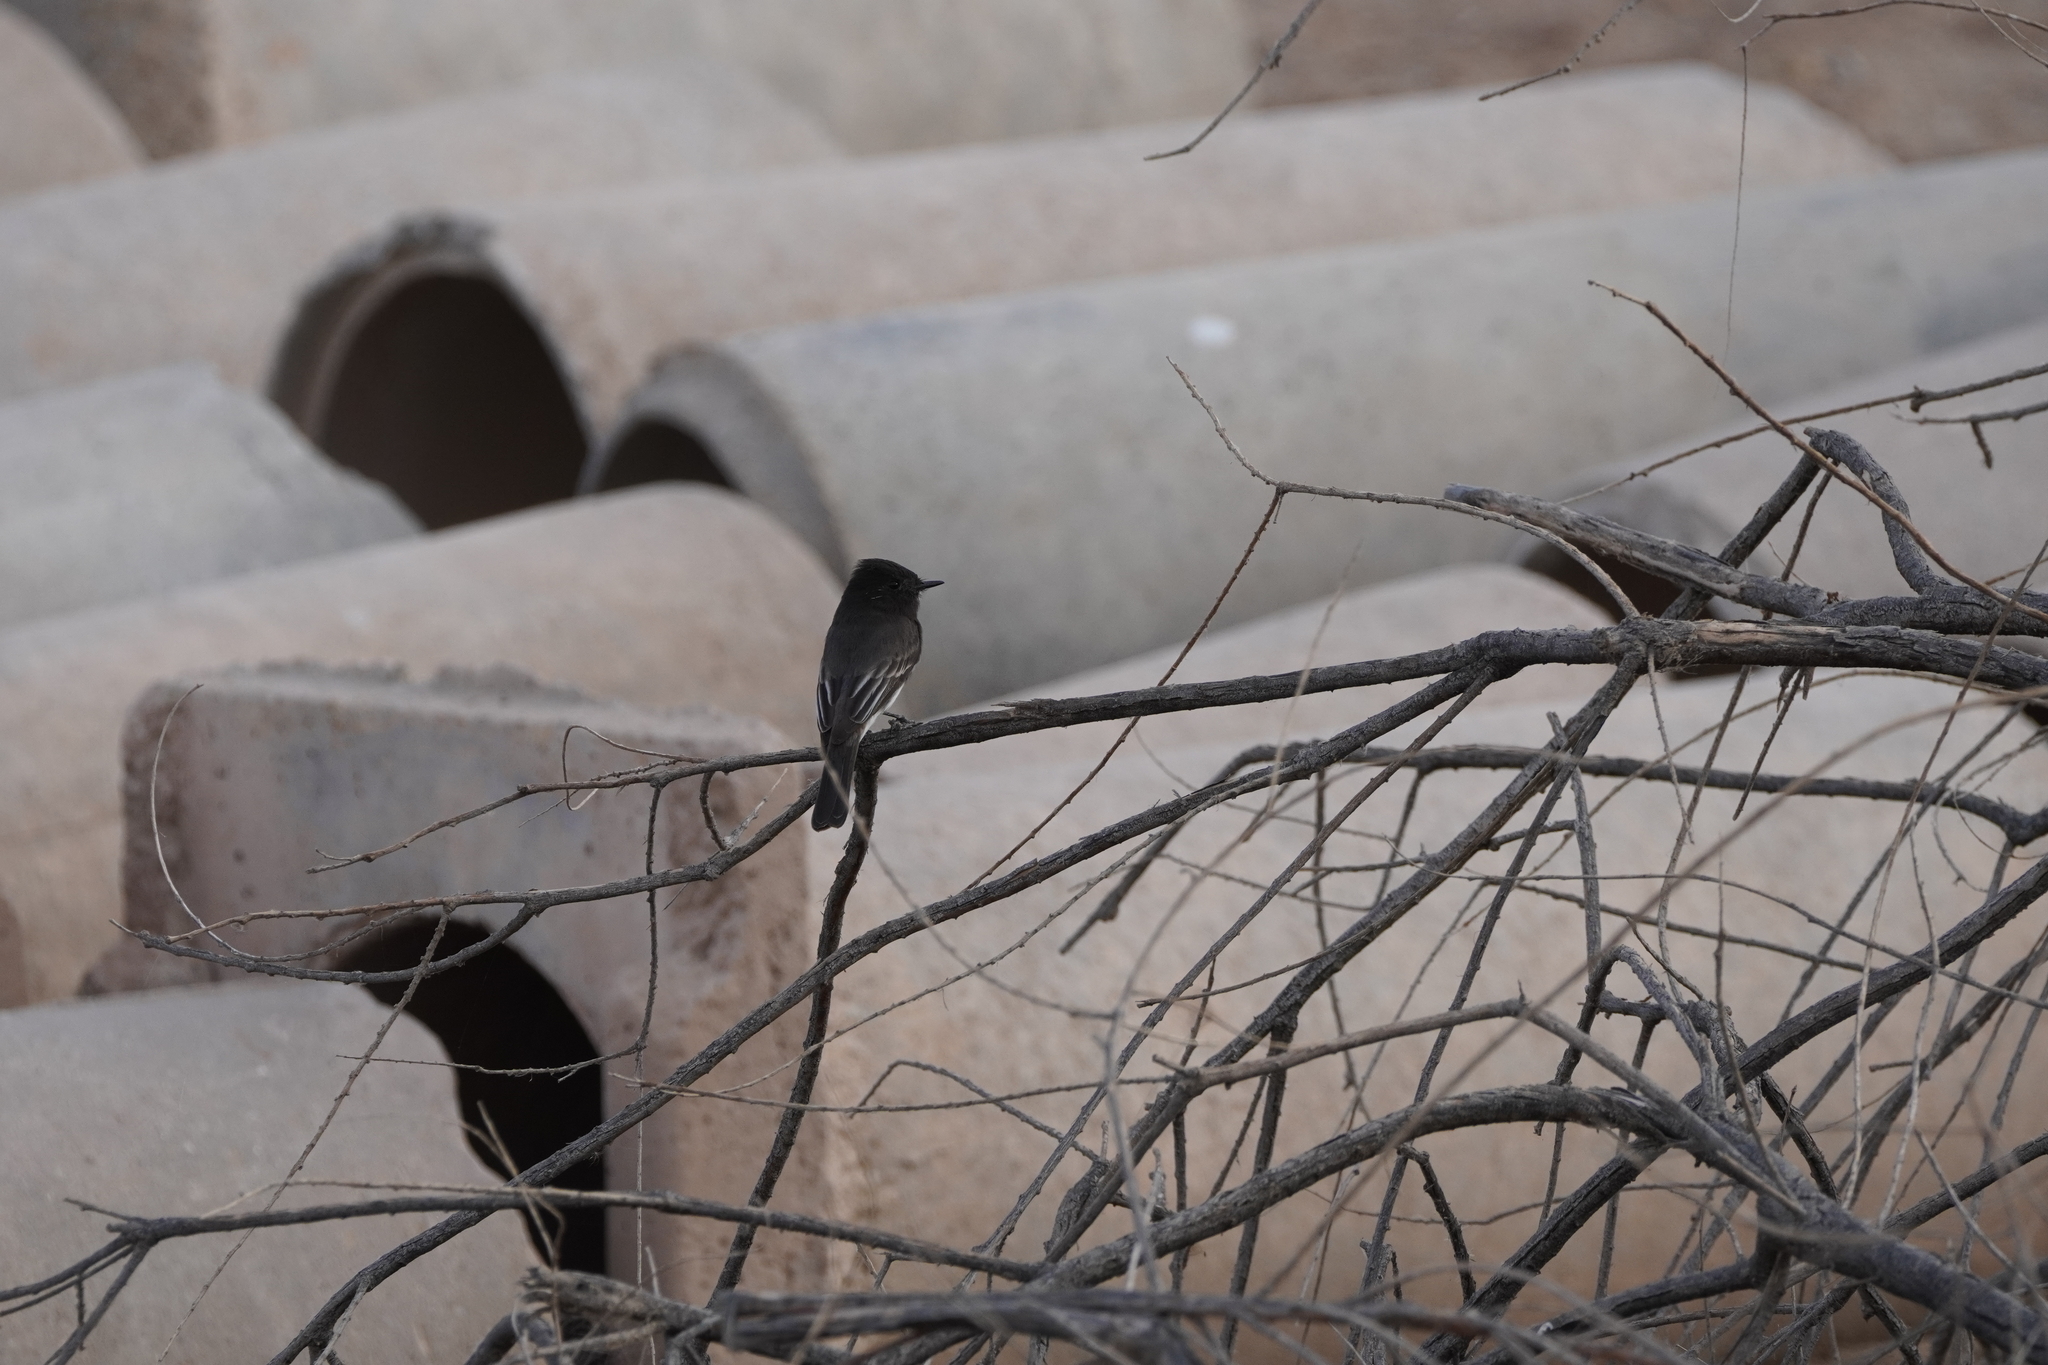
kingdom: Animalia
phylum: Chordata
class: Aves
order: Passeriformes
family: Tyrannidae
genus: Sayornis
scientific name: Sayornis nigricans
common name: Black phoebe
